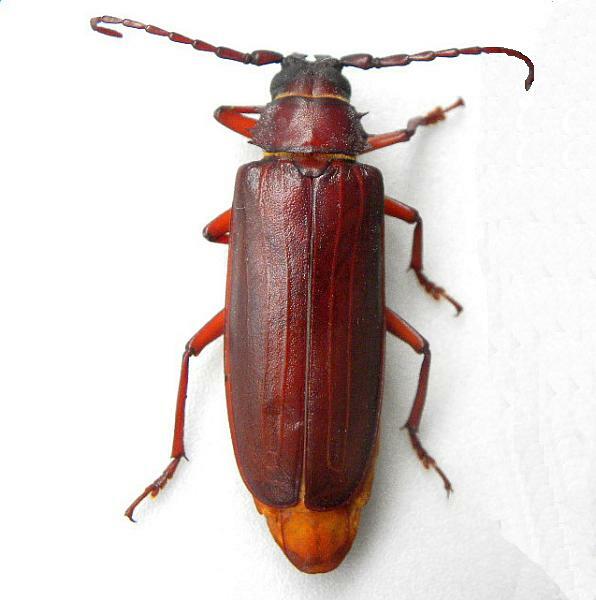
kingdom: Animalia
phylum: Arthropoda
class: Insecta
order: Coleoptera
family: Cerambycidae
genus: Orthosoma
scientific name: Orthosoma brunneum
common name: Brown prionid beetle
